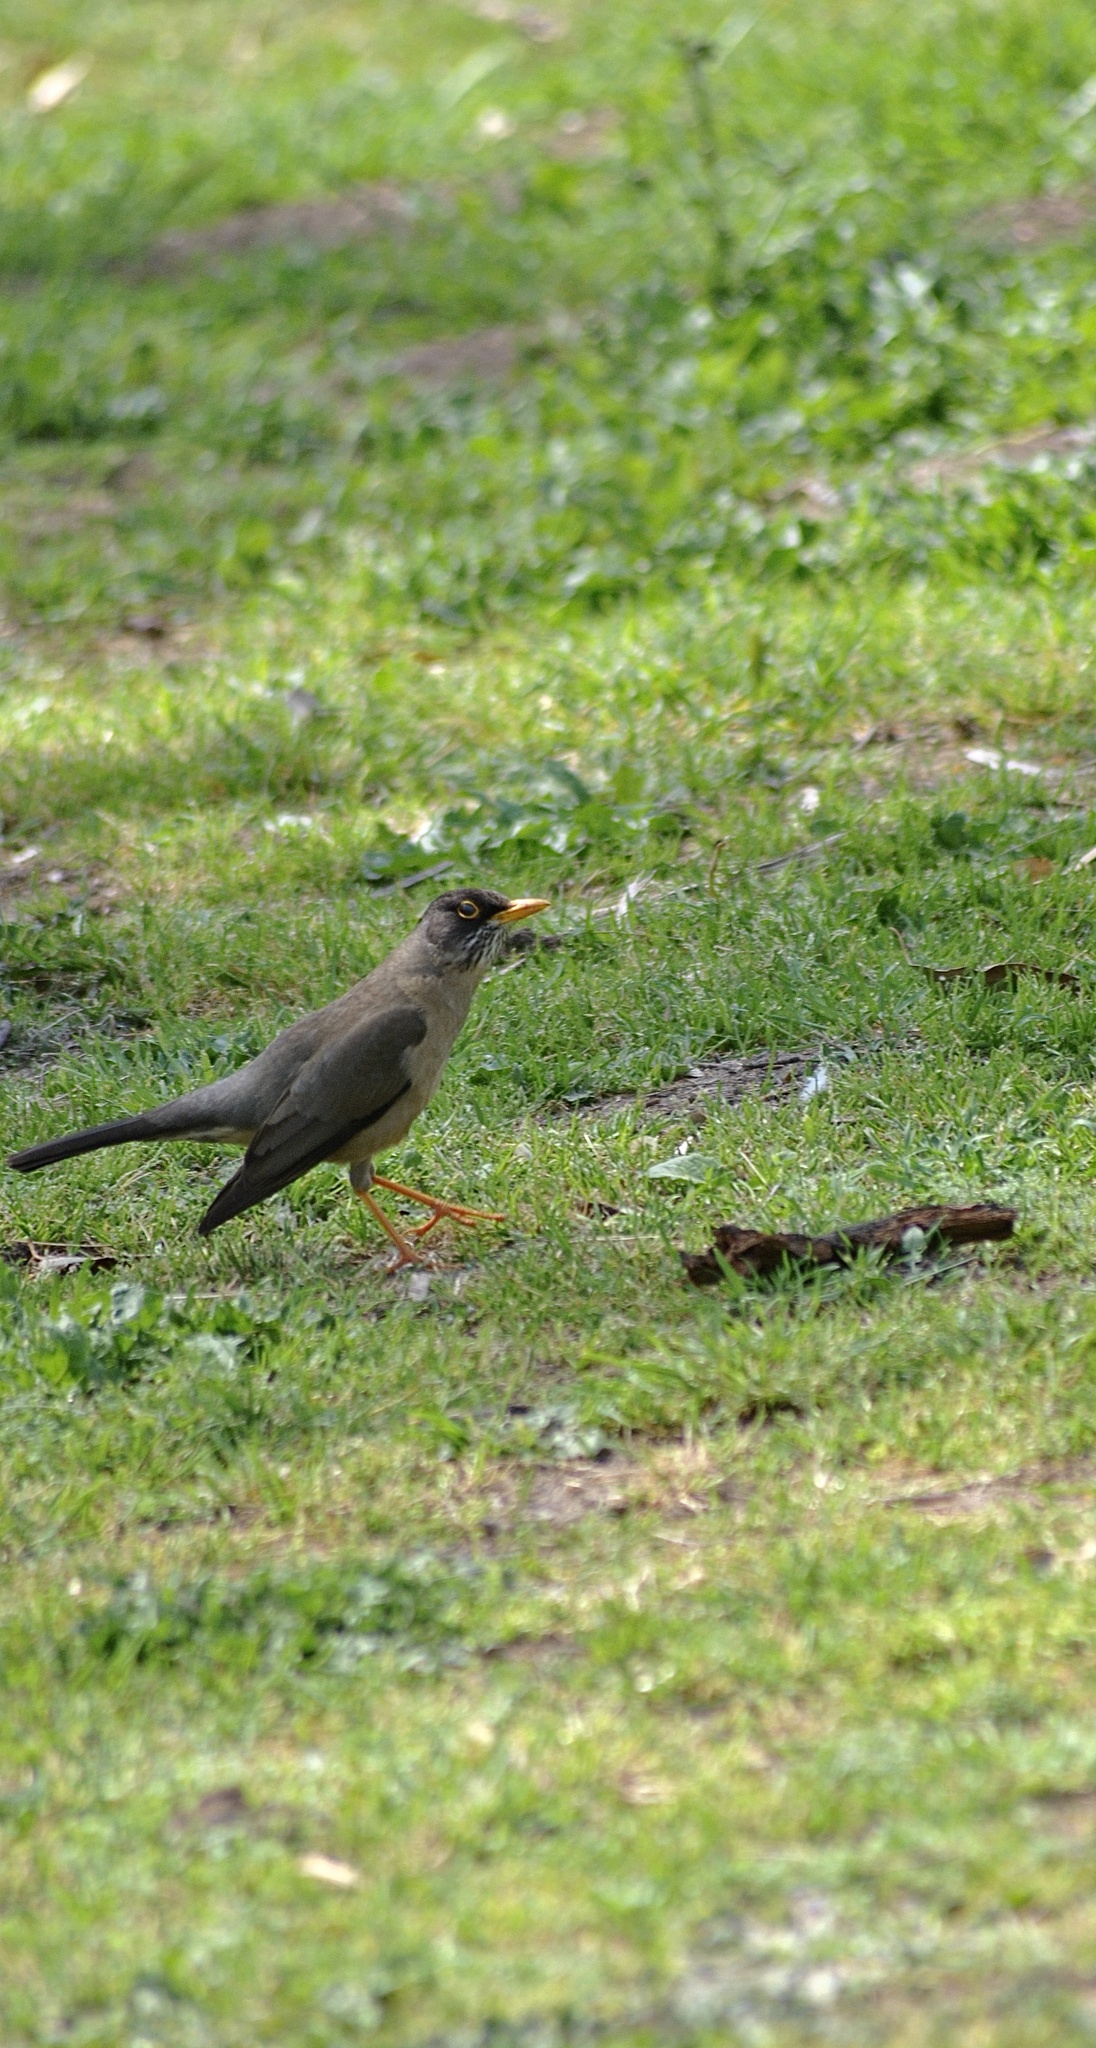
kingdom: Animalia
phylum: Chordata
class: Aves
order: Passeriformes
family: Turdidae
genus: Turdus
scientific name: Turdus falcklandii
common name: Austral thrush
